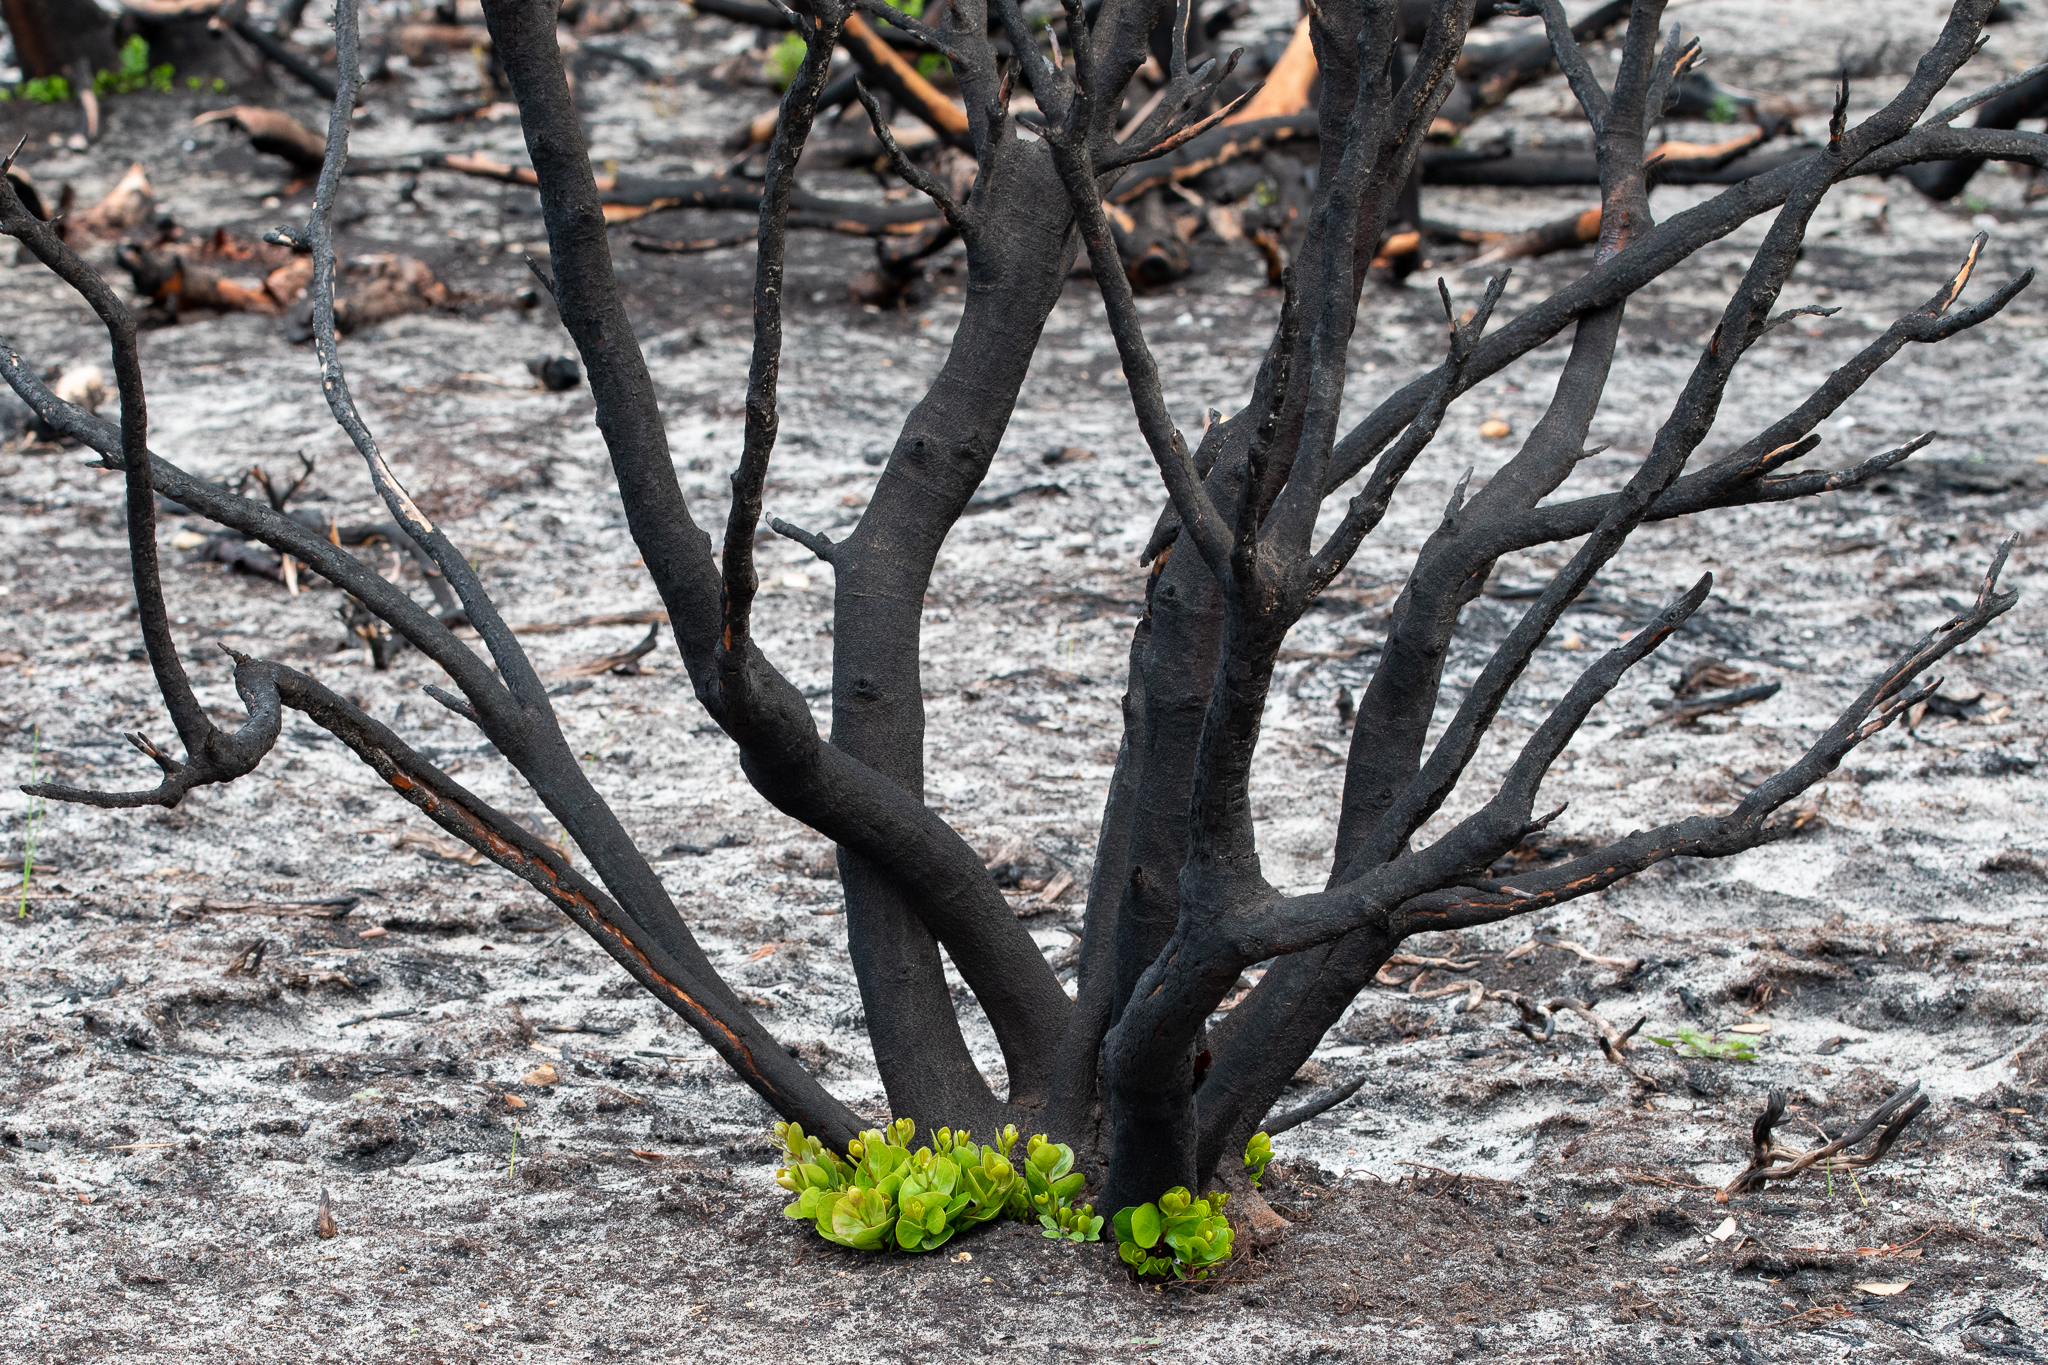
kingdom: Plantae
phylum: Tracheophyta
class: Magnoliopsida
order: Celastrales
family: Celastraceae
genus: Cassine
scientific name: Cassine peragua
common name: Cape saffron
